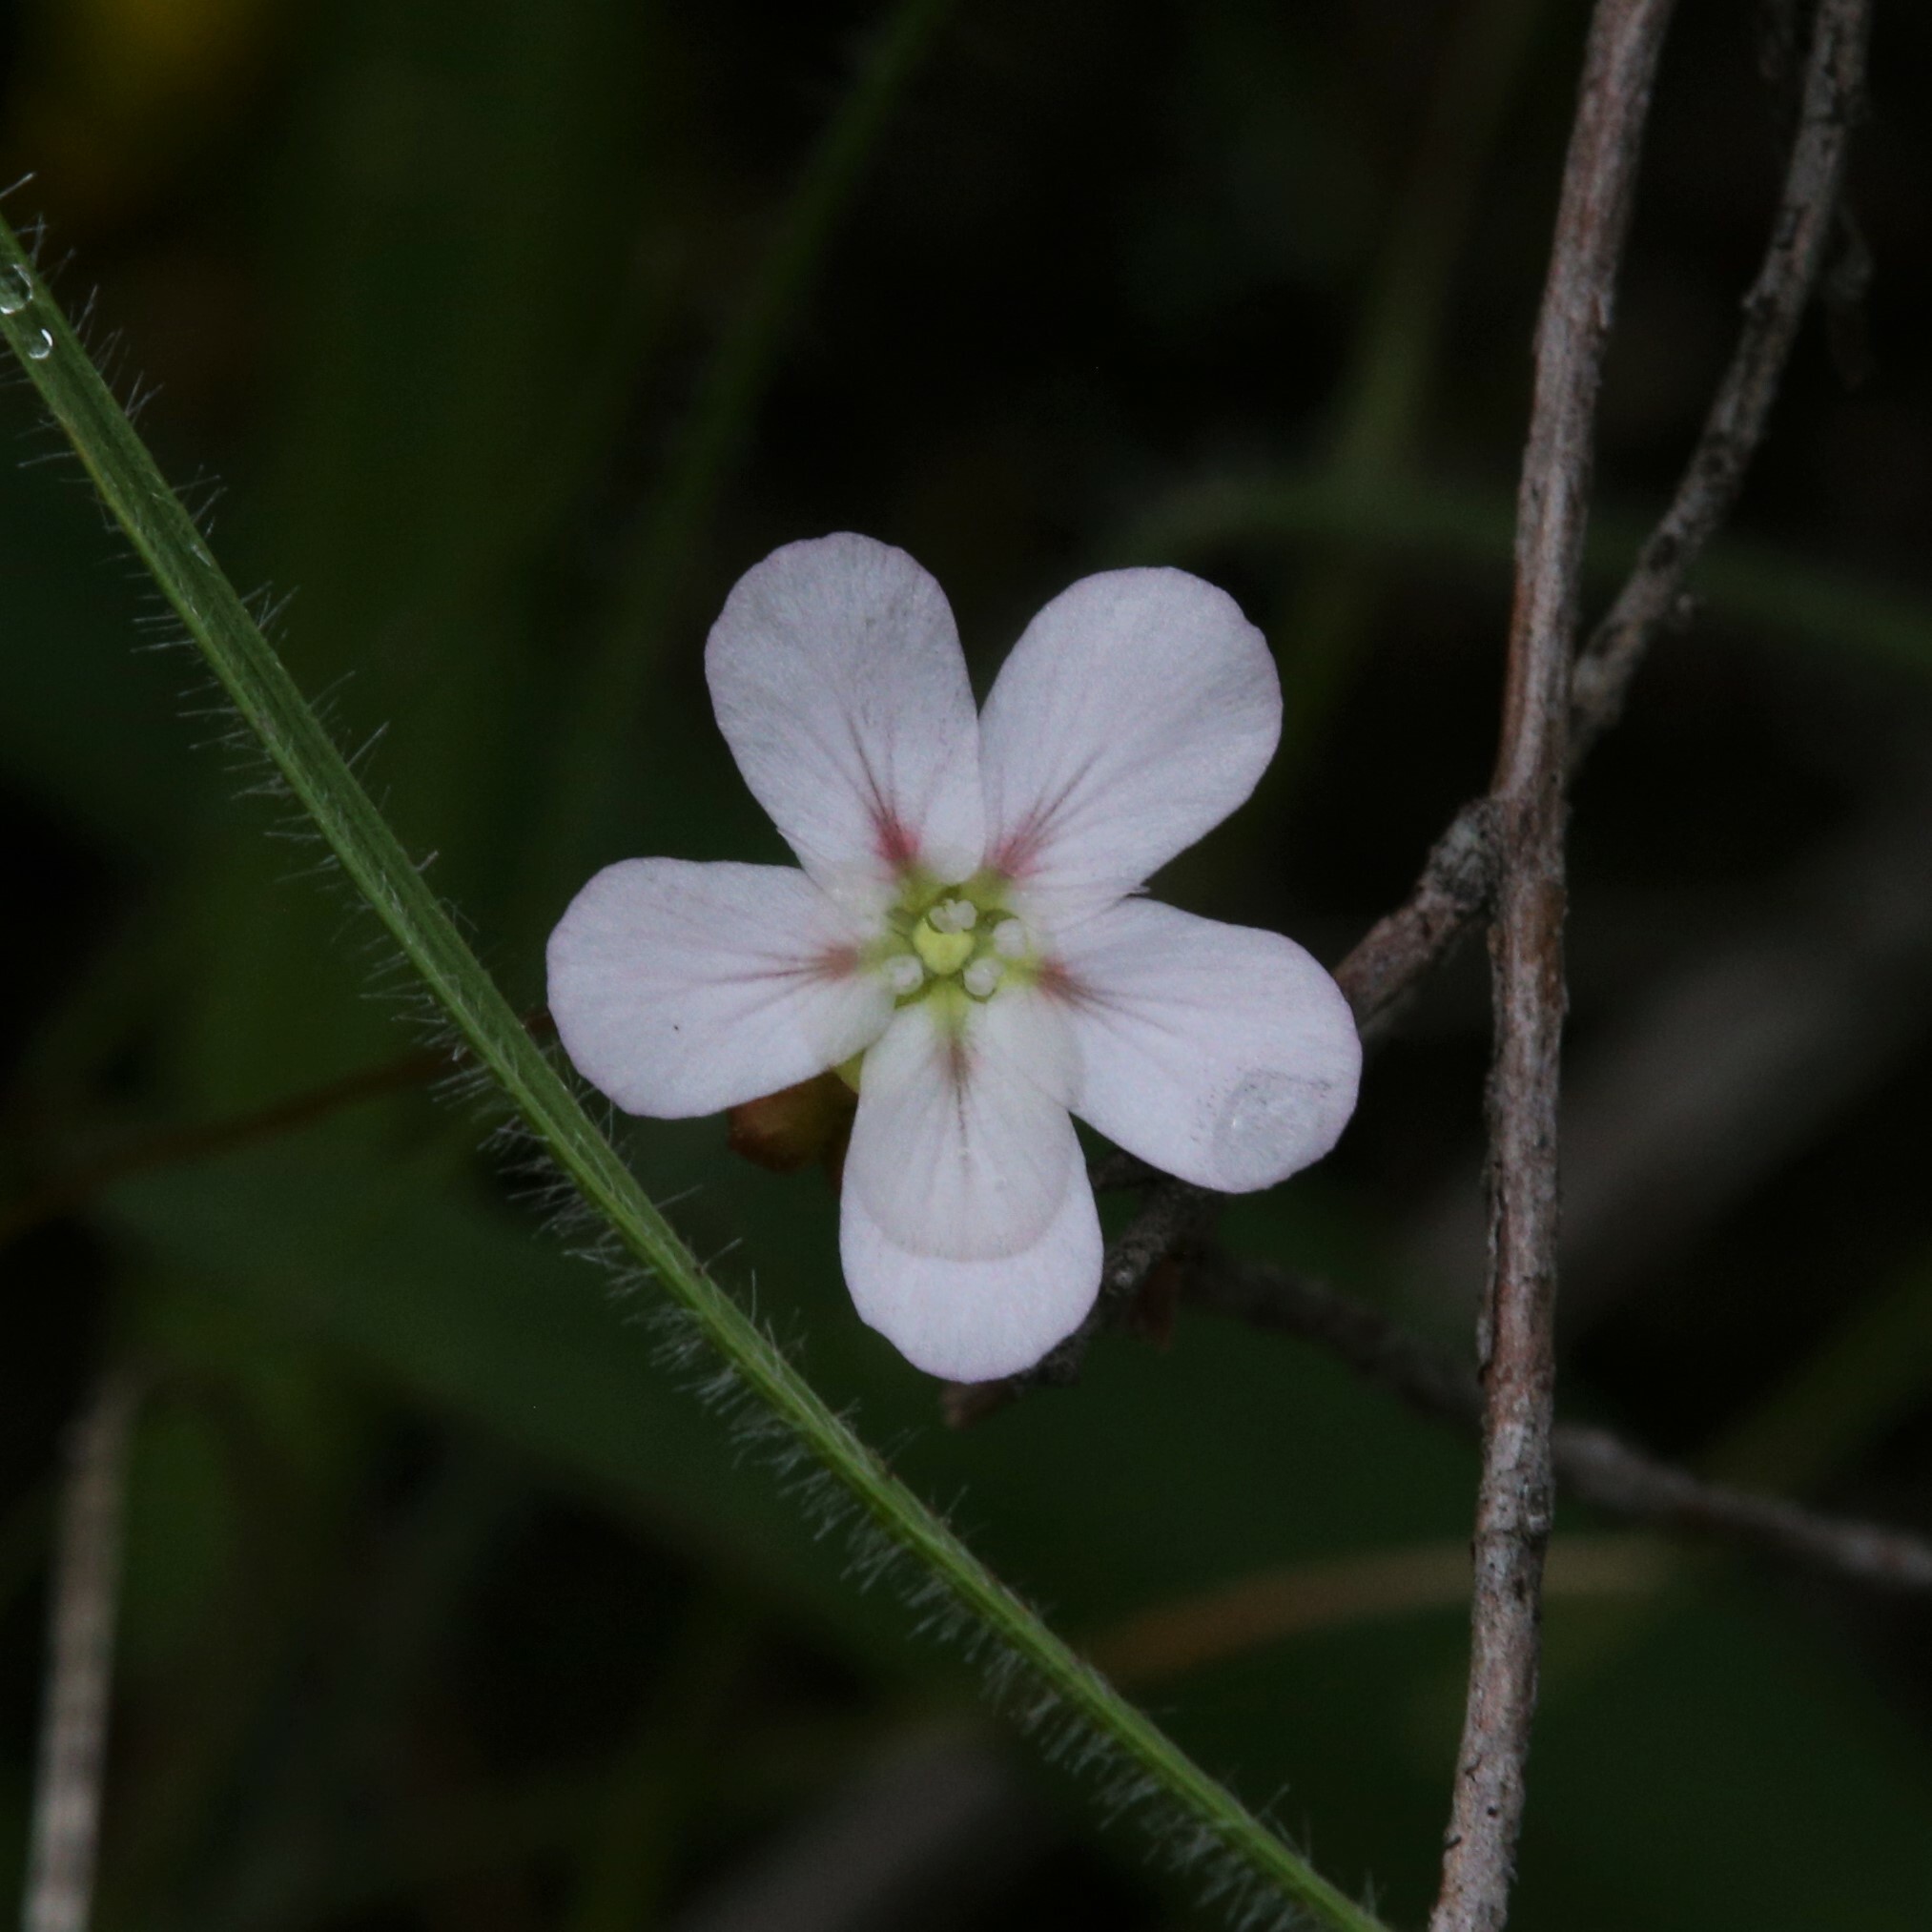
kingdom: Plantae
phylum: Tracheophyta
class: Magnoliopsida
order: Caryophyllales
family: Droseraceae
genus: Drosera
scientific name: Drosera spilos
